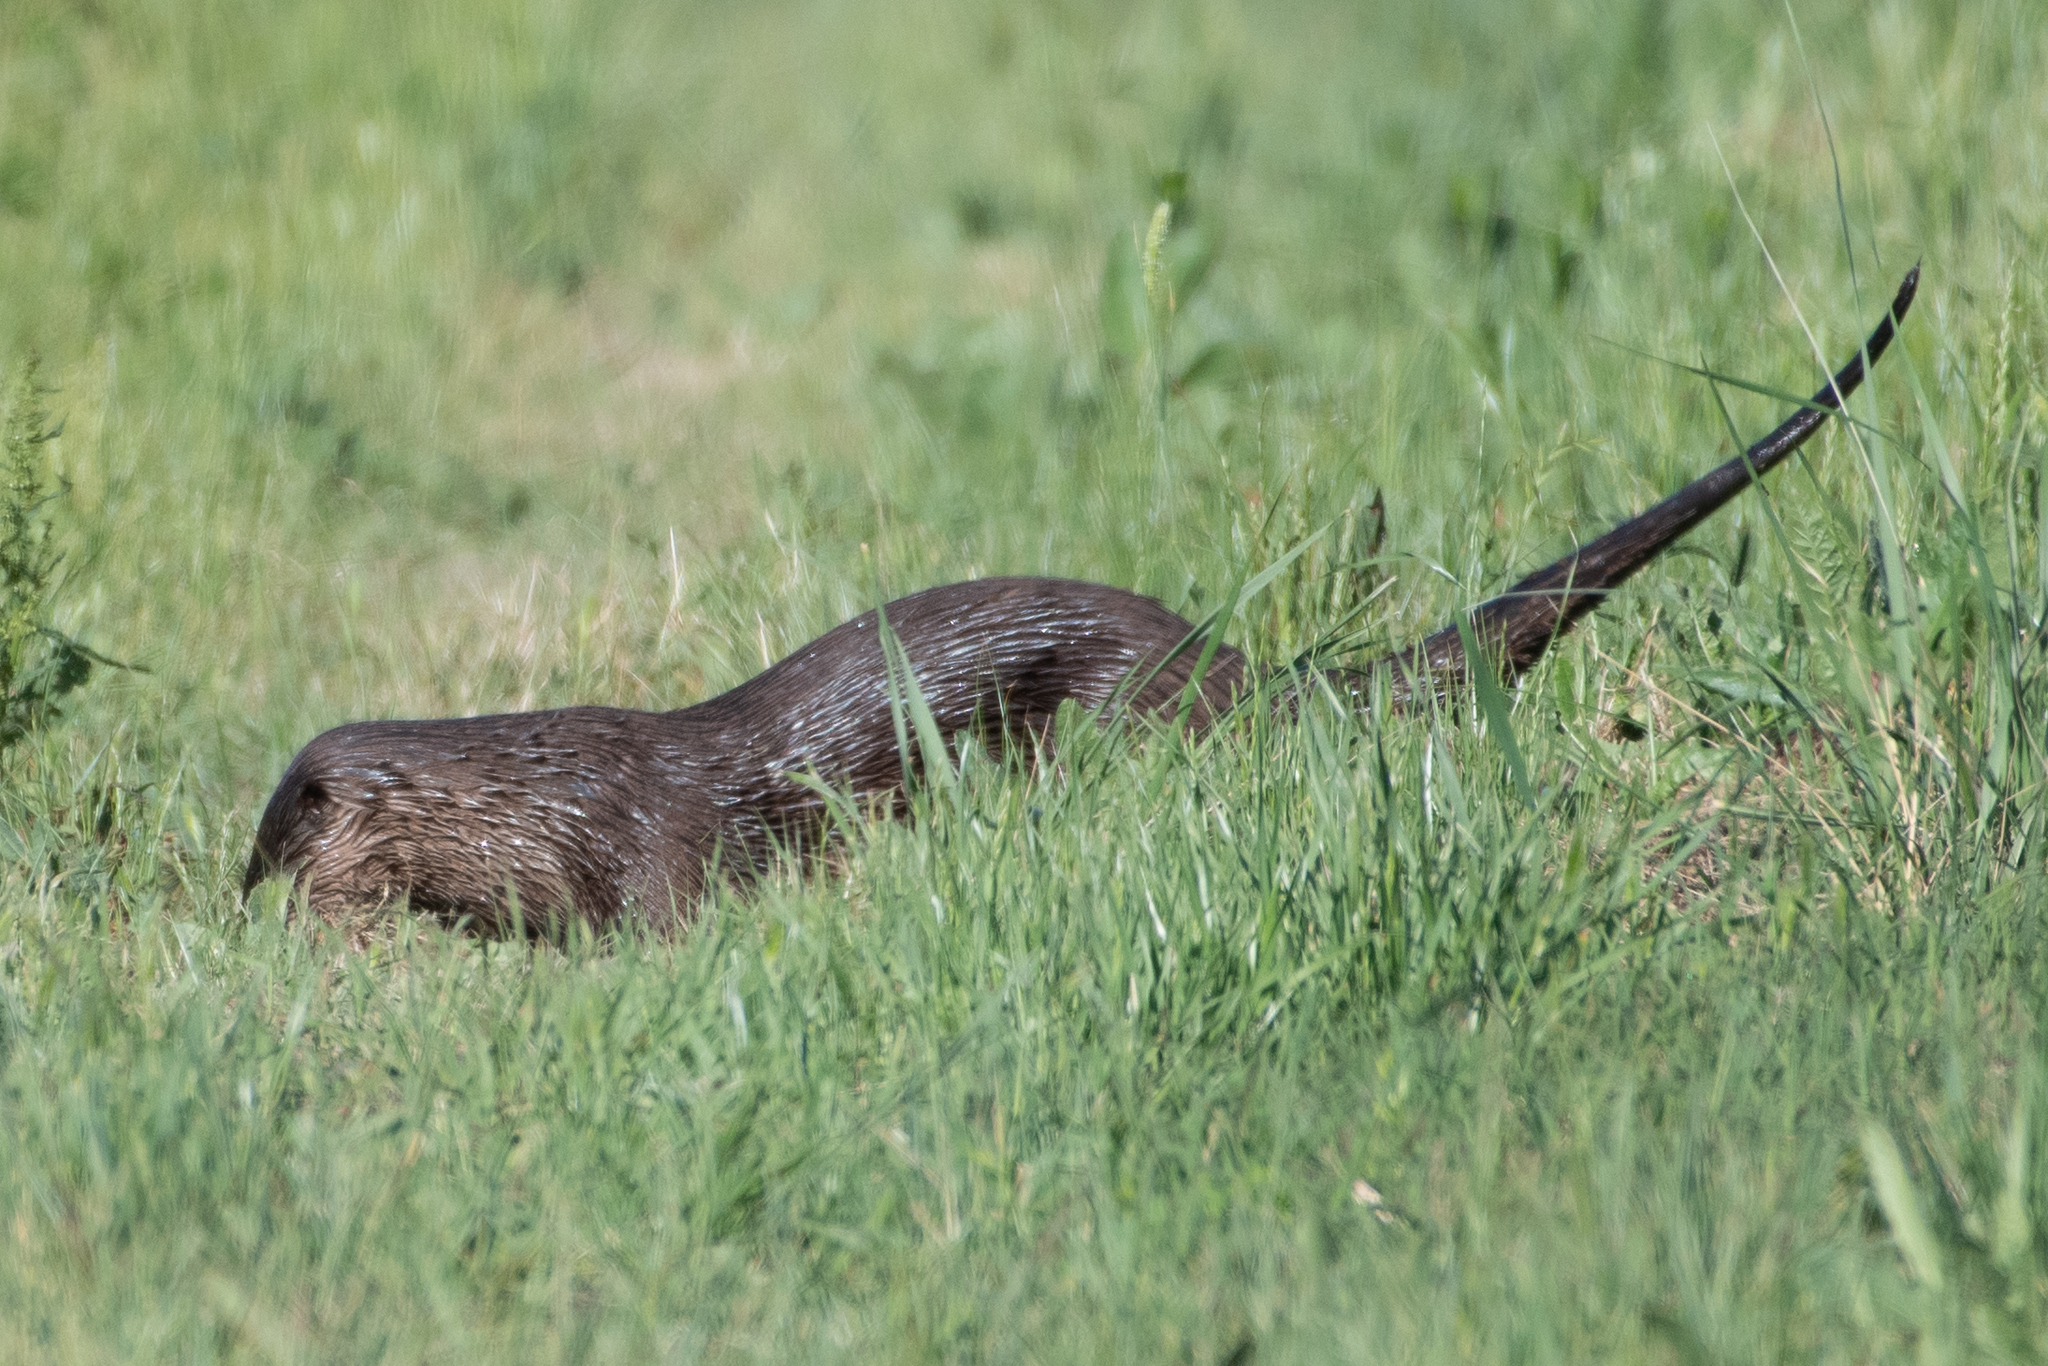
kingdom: Animalia
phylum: Chordata
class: Mammalia
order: Carnivora
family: Mustelidae
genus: Lontra
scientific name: Lontra canadensis
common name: North american river otter
